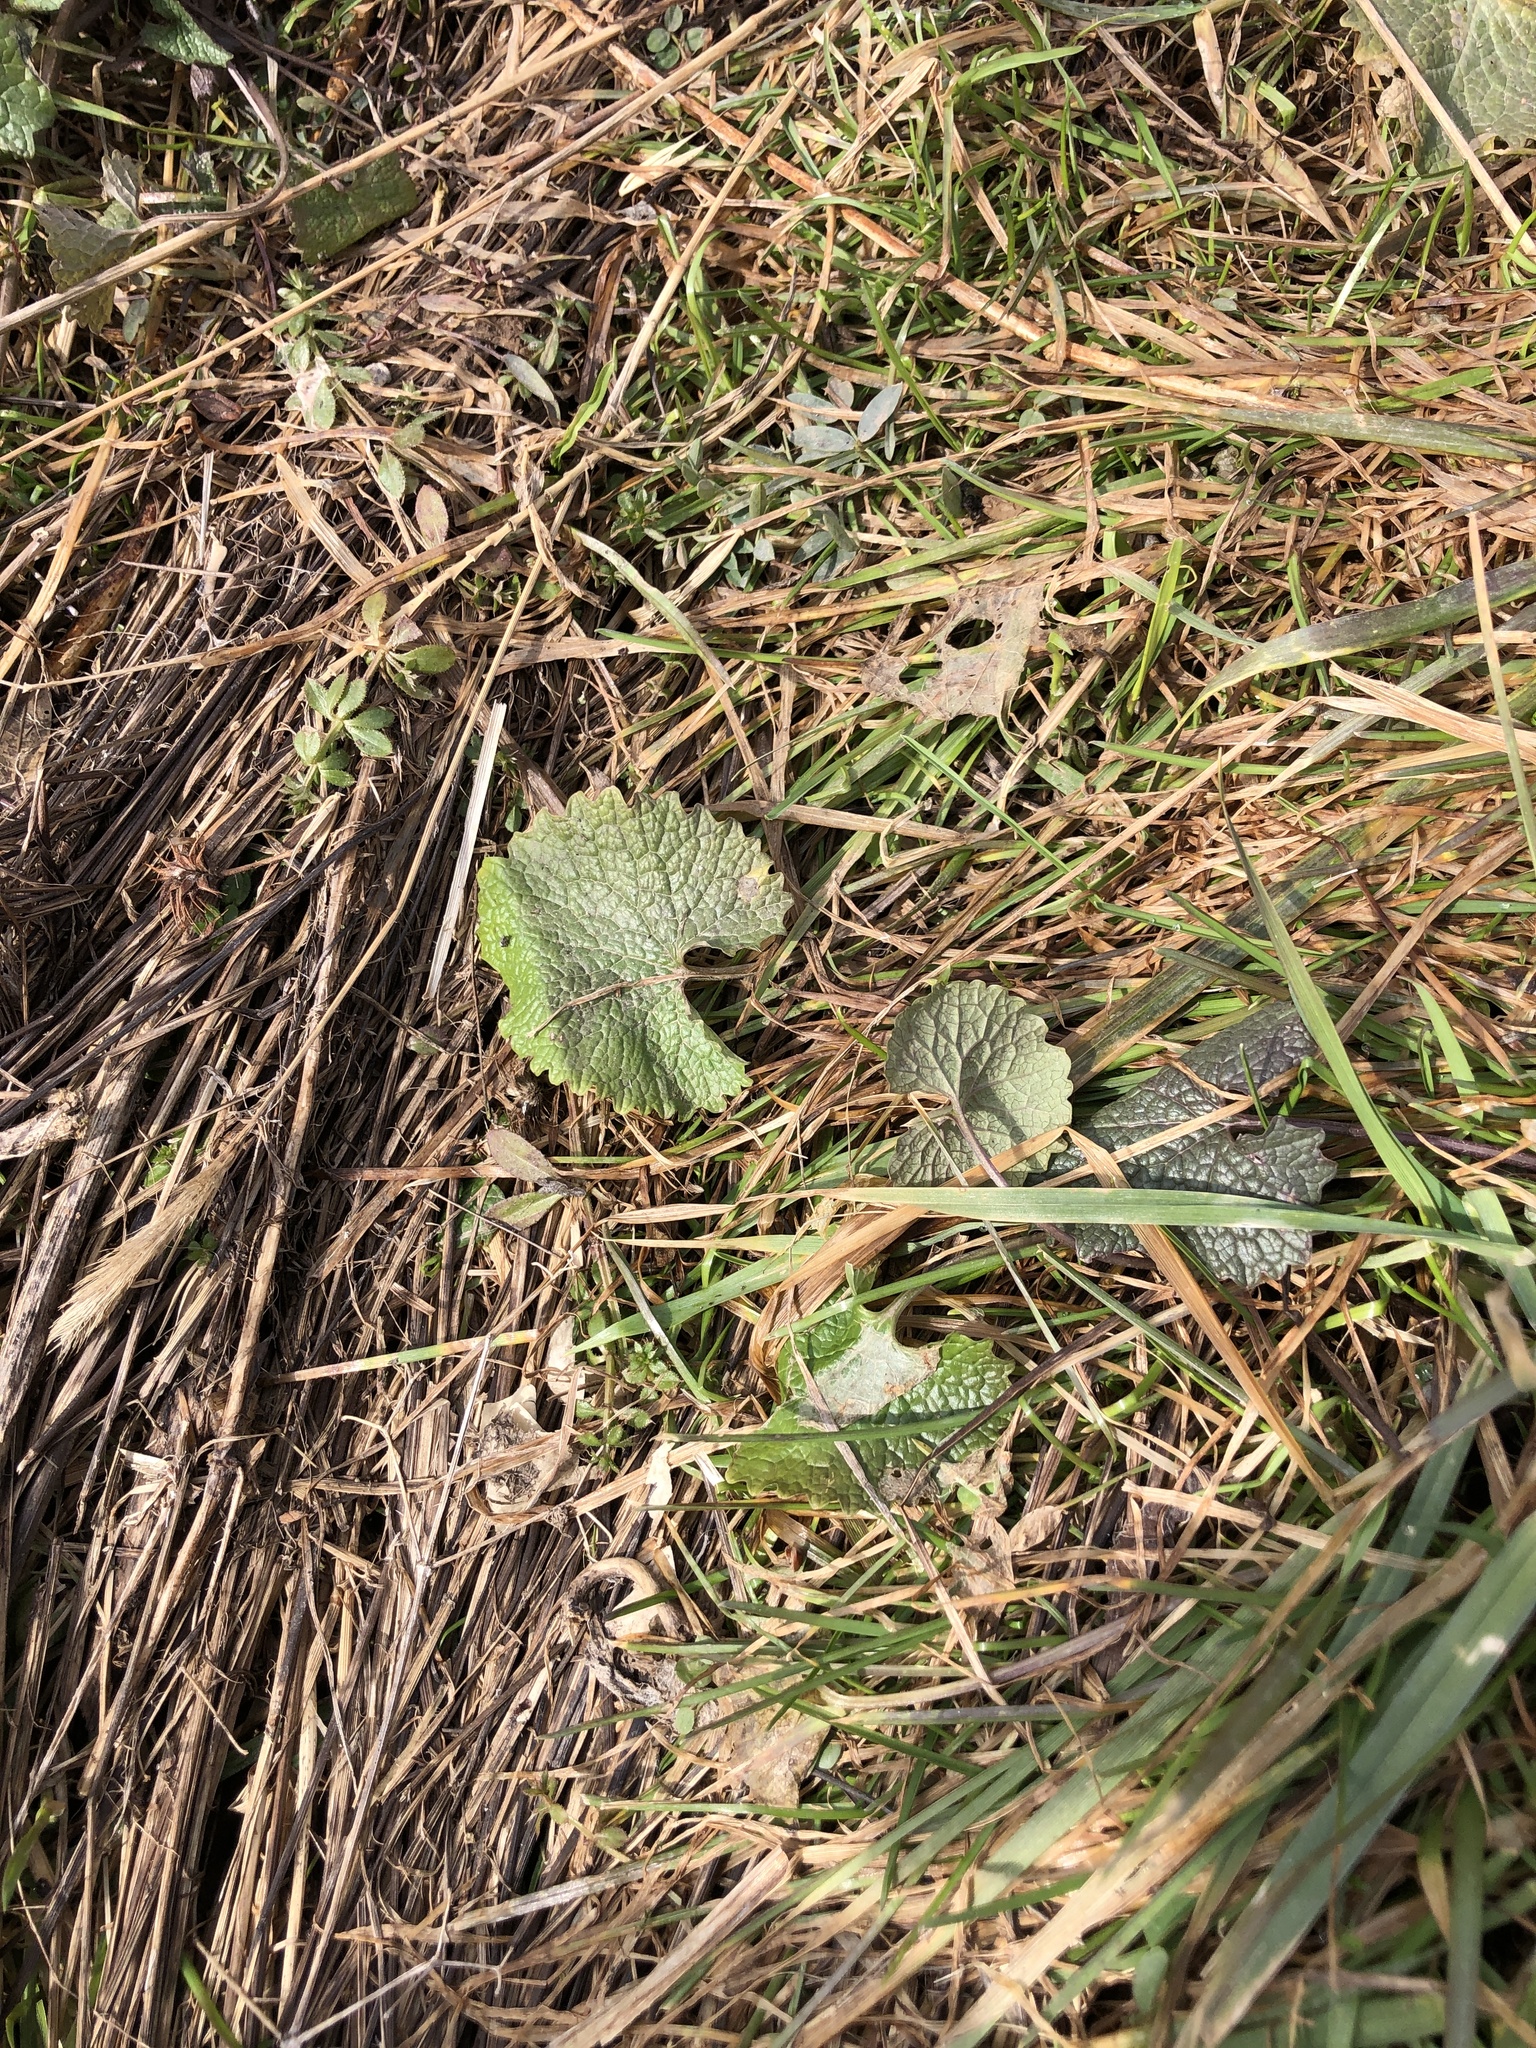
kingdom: Plantae
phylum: Tracheophyta
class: Magnoliopsida
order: Brassicales
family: Brassicaceae
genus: Alliaria
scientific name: Alliaria petiolata
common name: Garlic mustard
